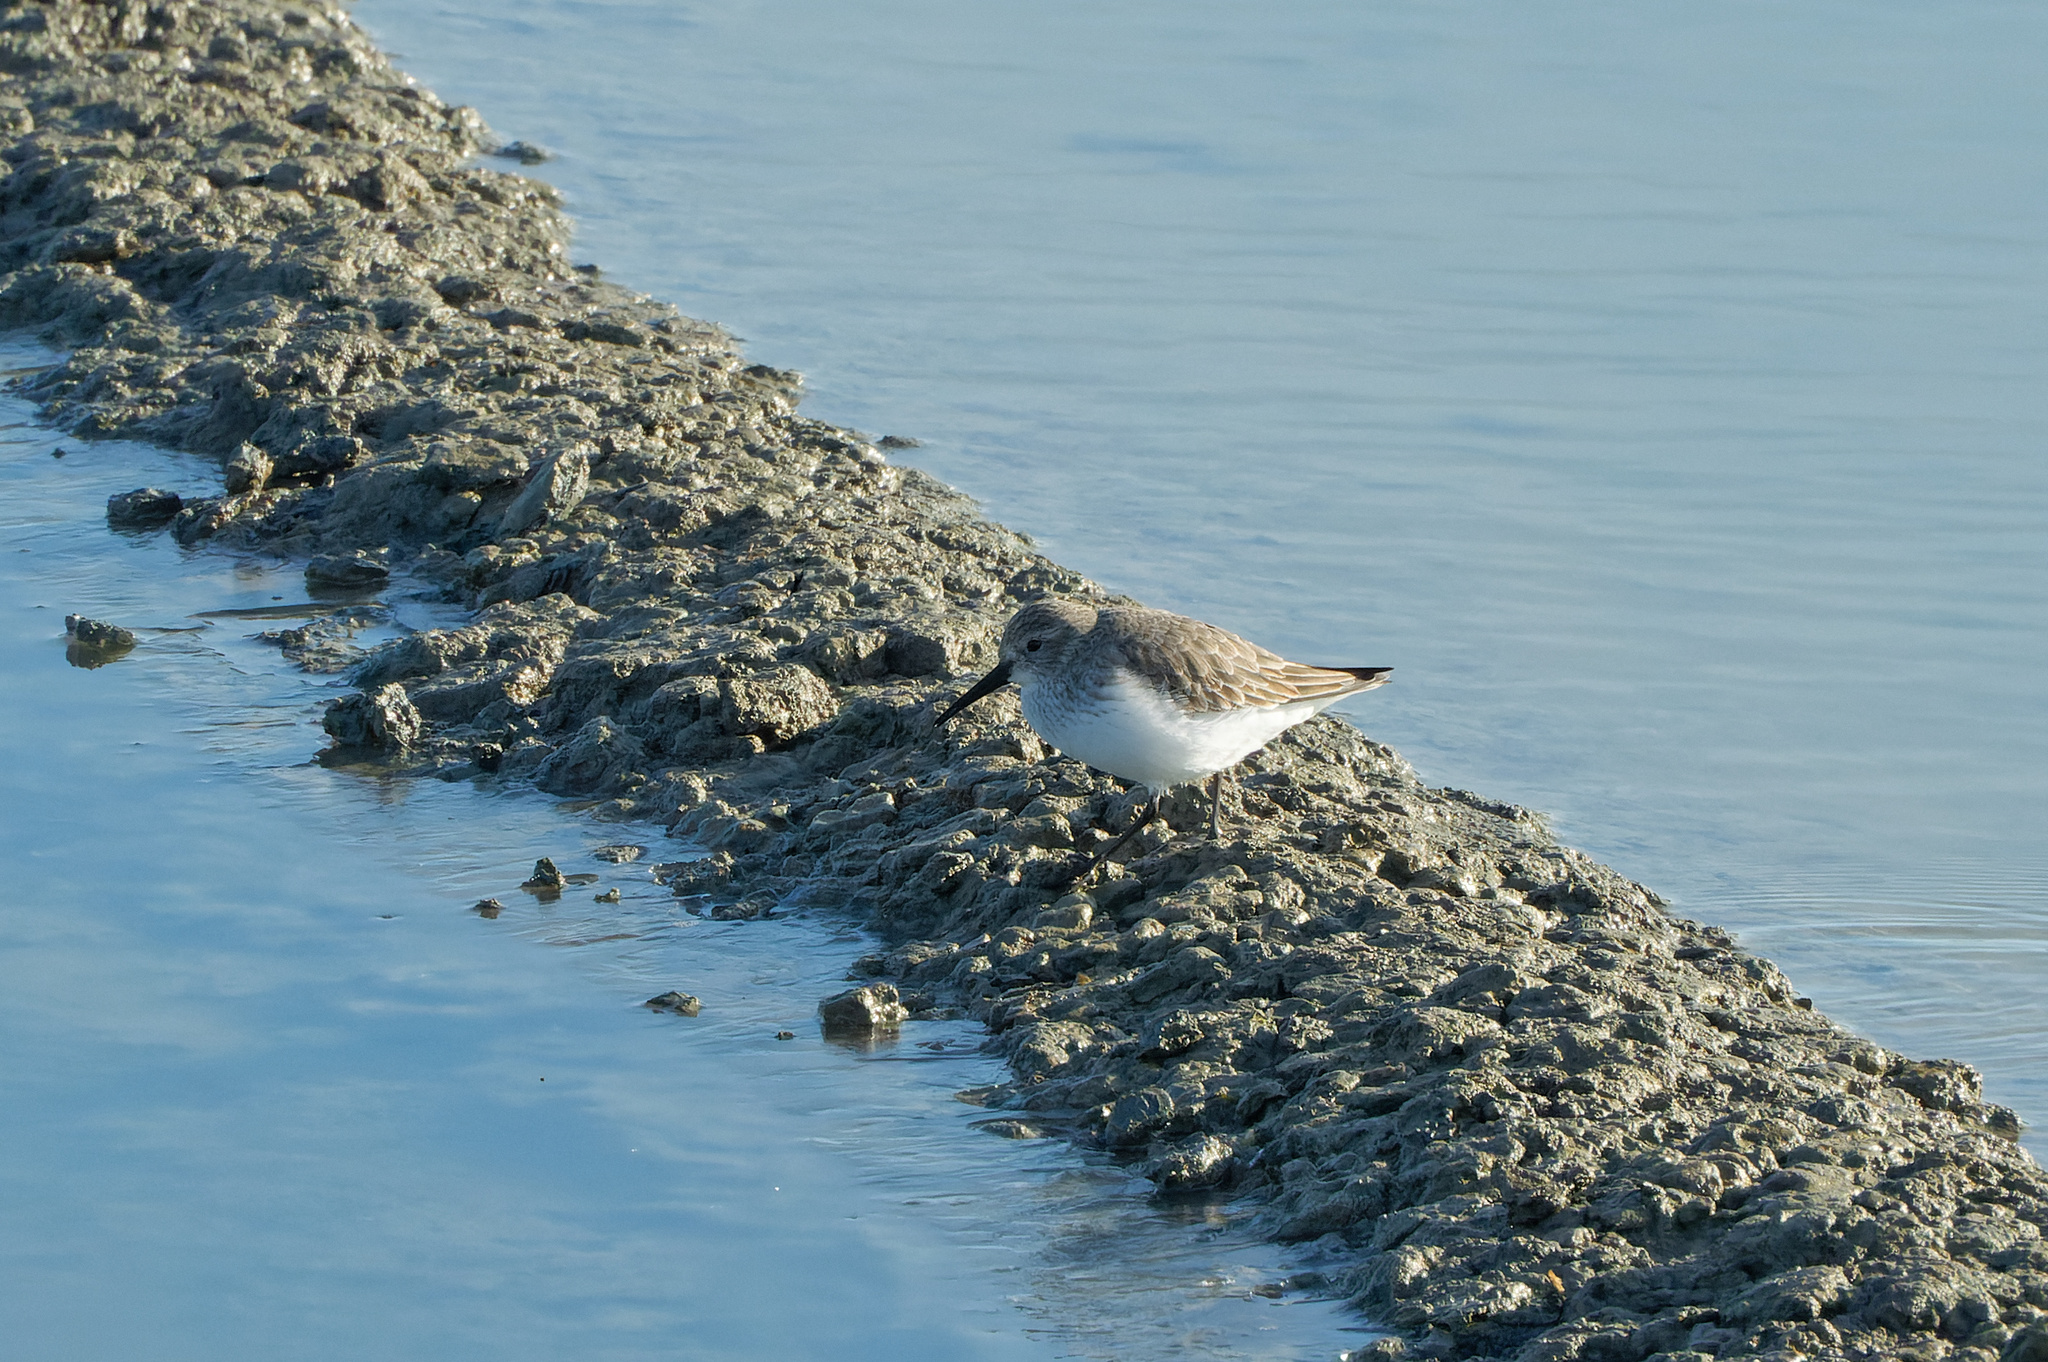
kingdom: Animalia
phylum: Chordata
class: Aves
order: Charadriiformes
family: Scolopacidae
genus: Calidris
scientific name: Calidris alpina
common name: Dunlin
